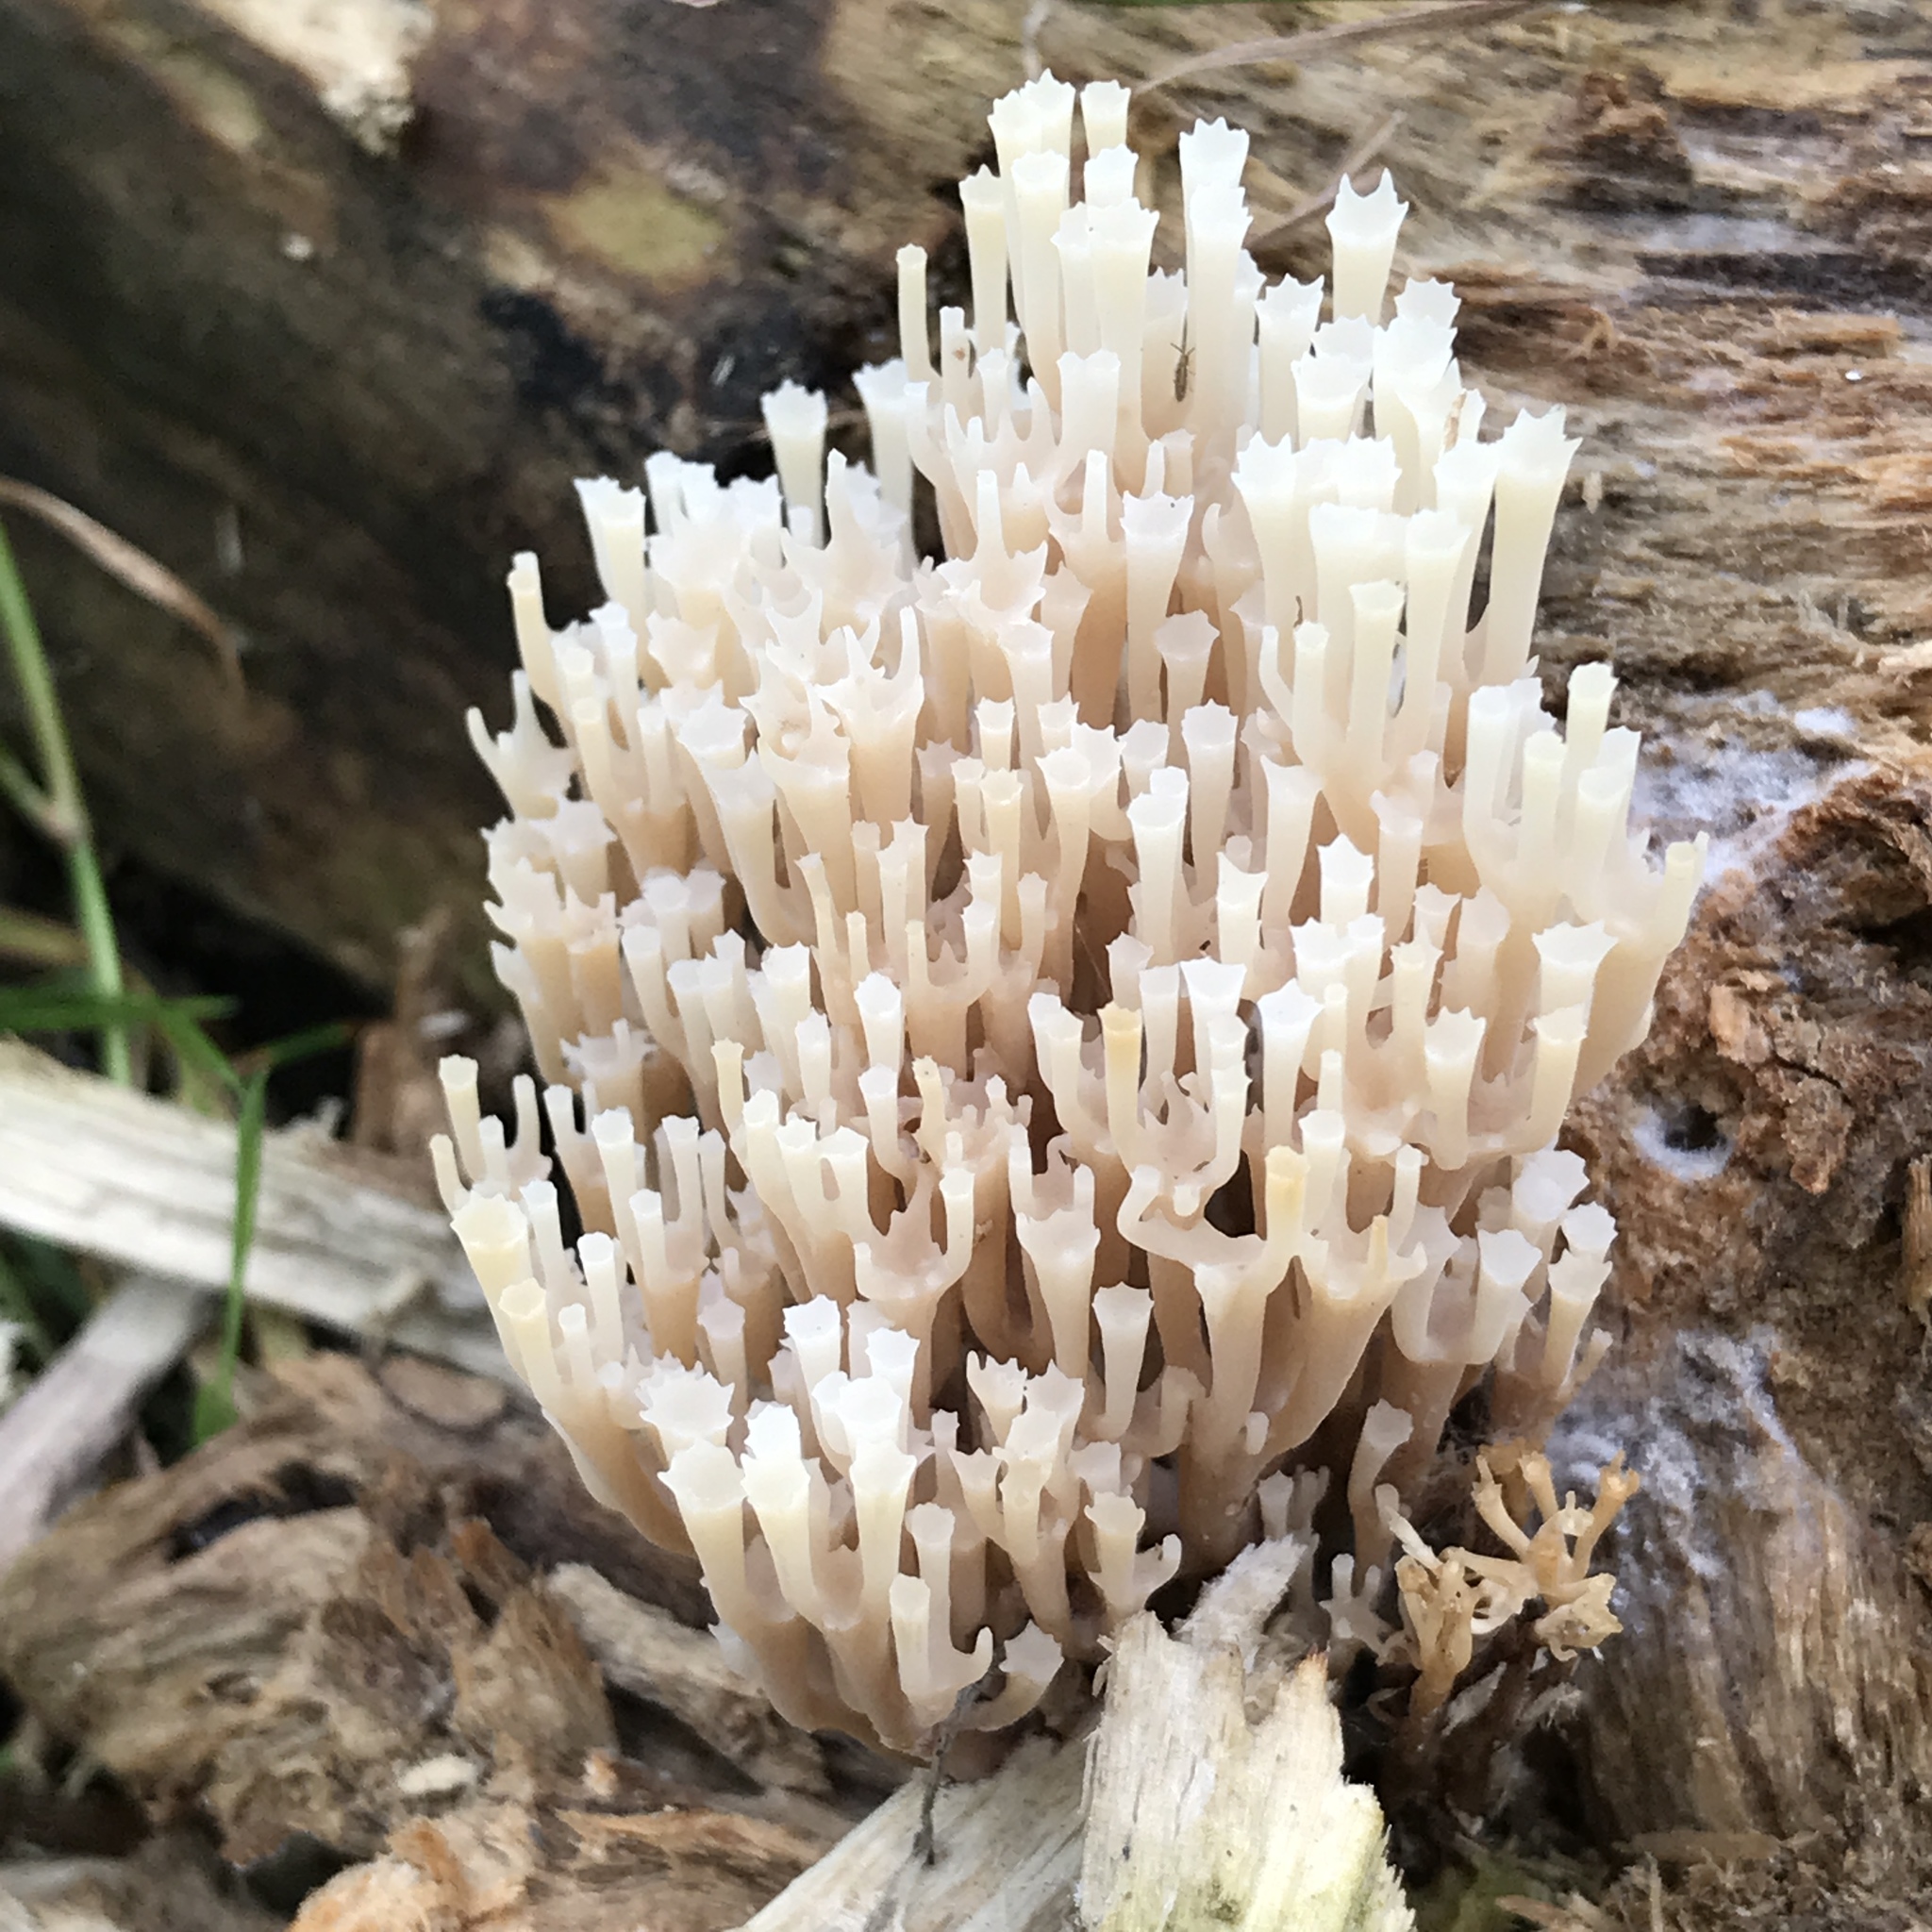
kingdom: Fungi
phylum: Basidiomycota
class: Agaricomycetes
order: Russulales
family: Auriscalpiaceae
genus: Artomyces
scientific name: Artomyces pyxidatus
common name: Crown-tipped coral fungus
